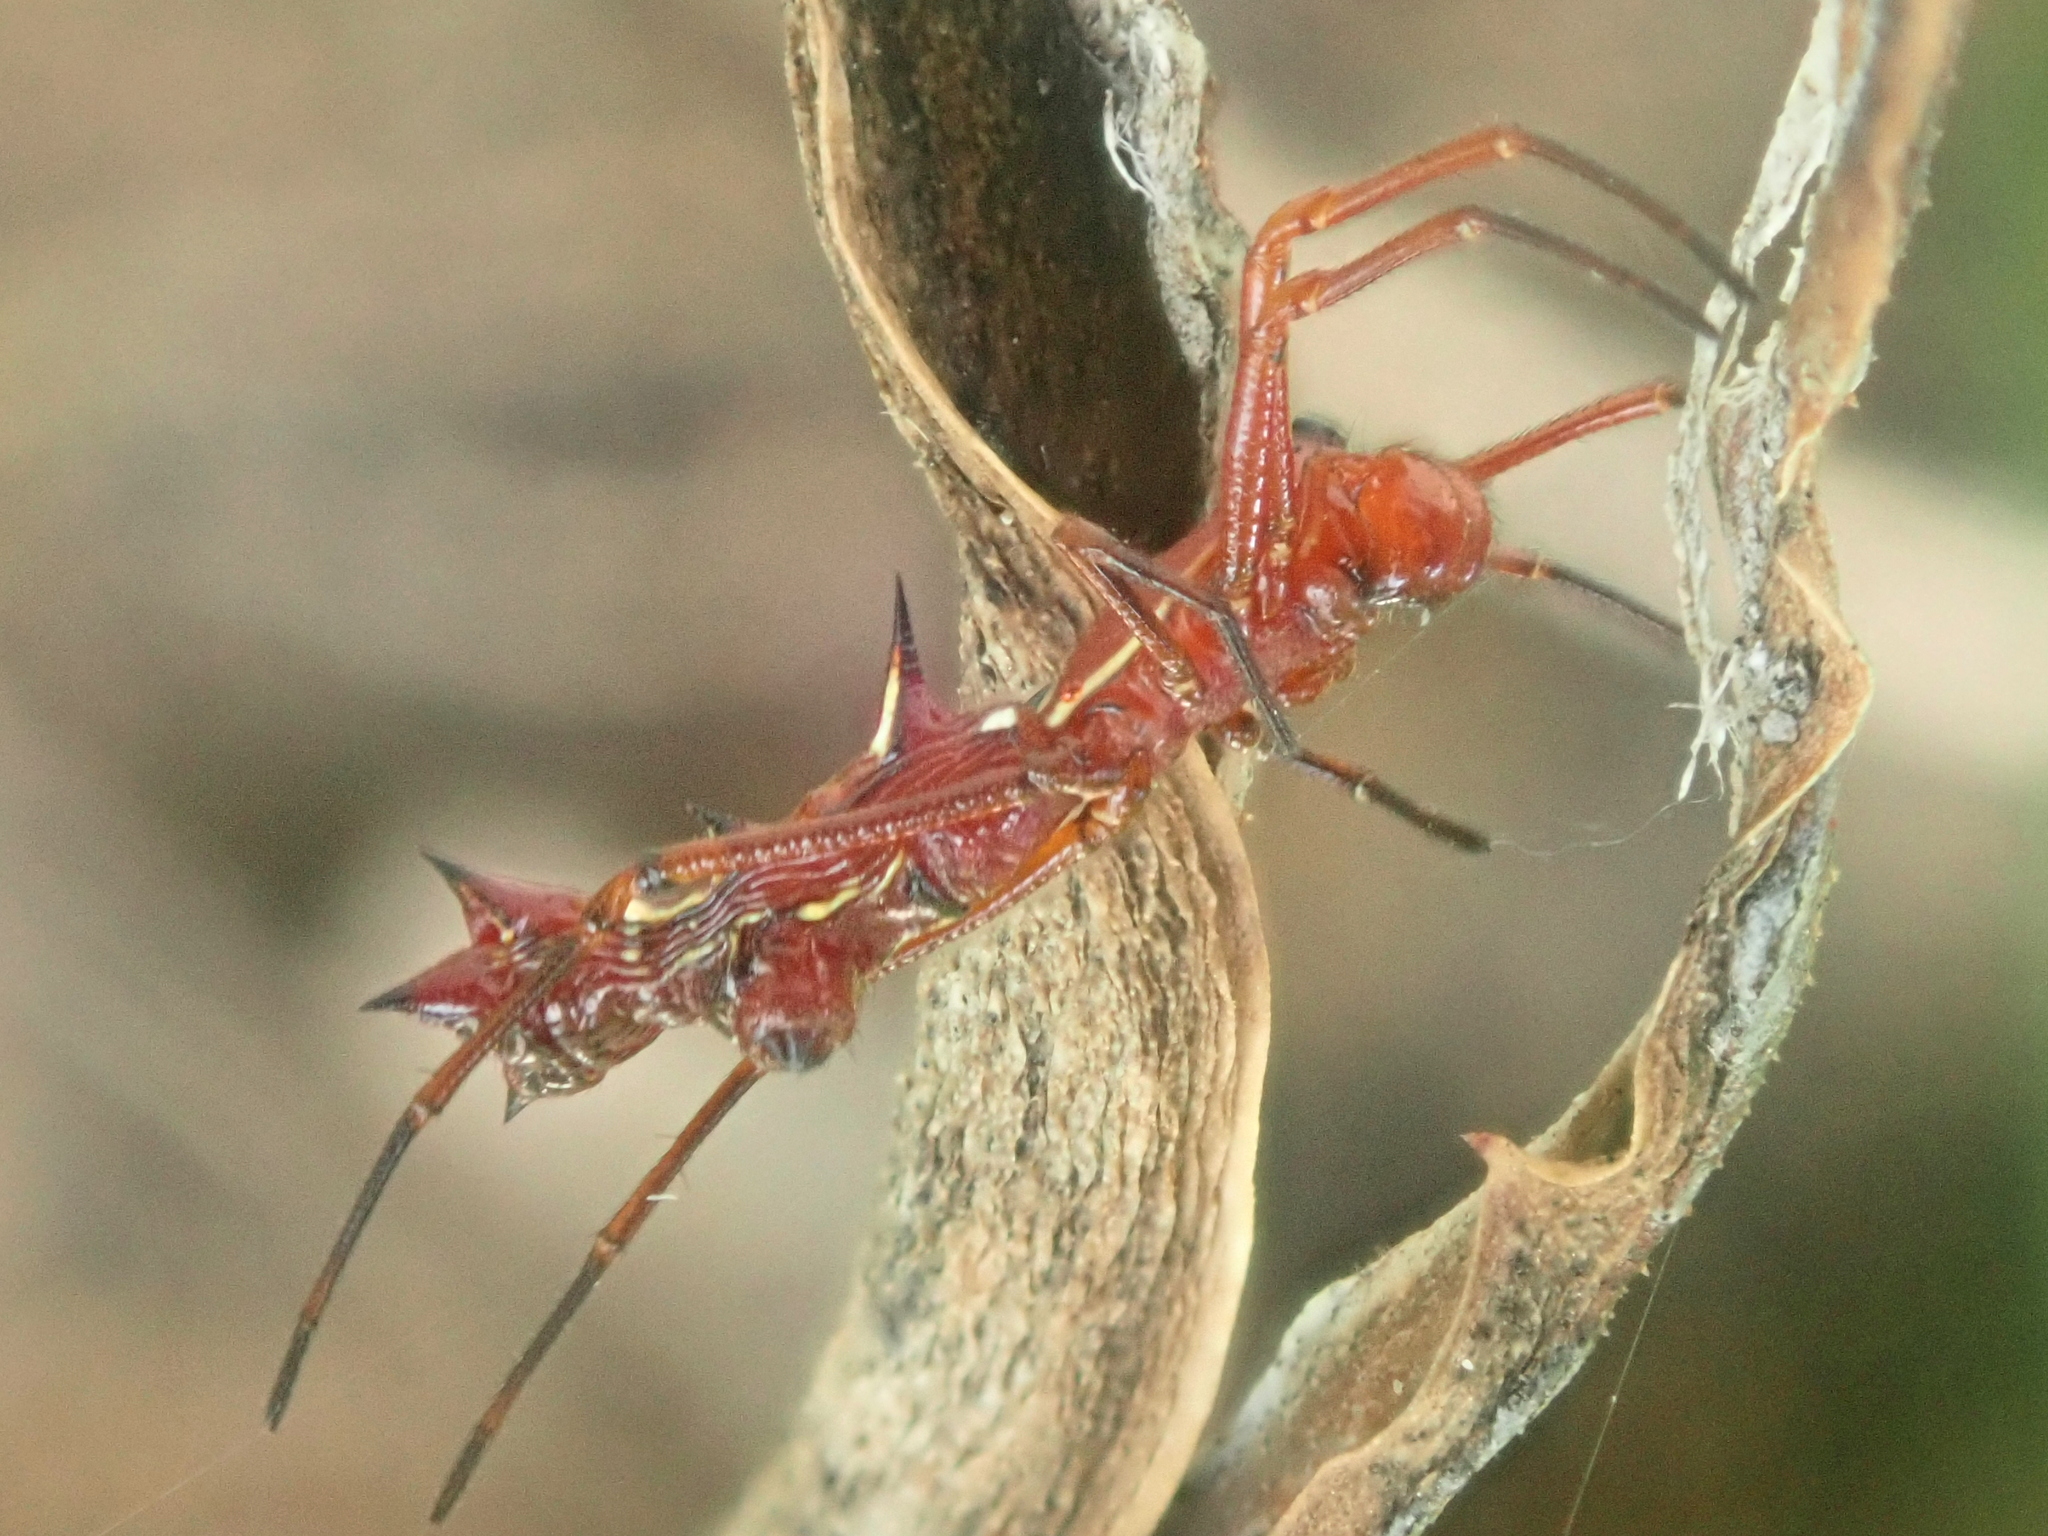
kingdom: Animalia
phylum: Arthropoda
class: Arachnida
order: Araneae
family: Araneidae
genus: Micrathena
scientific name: Micrathena swainsoni
